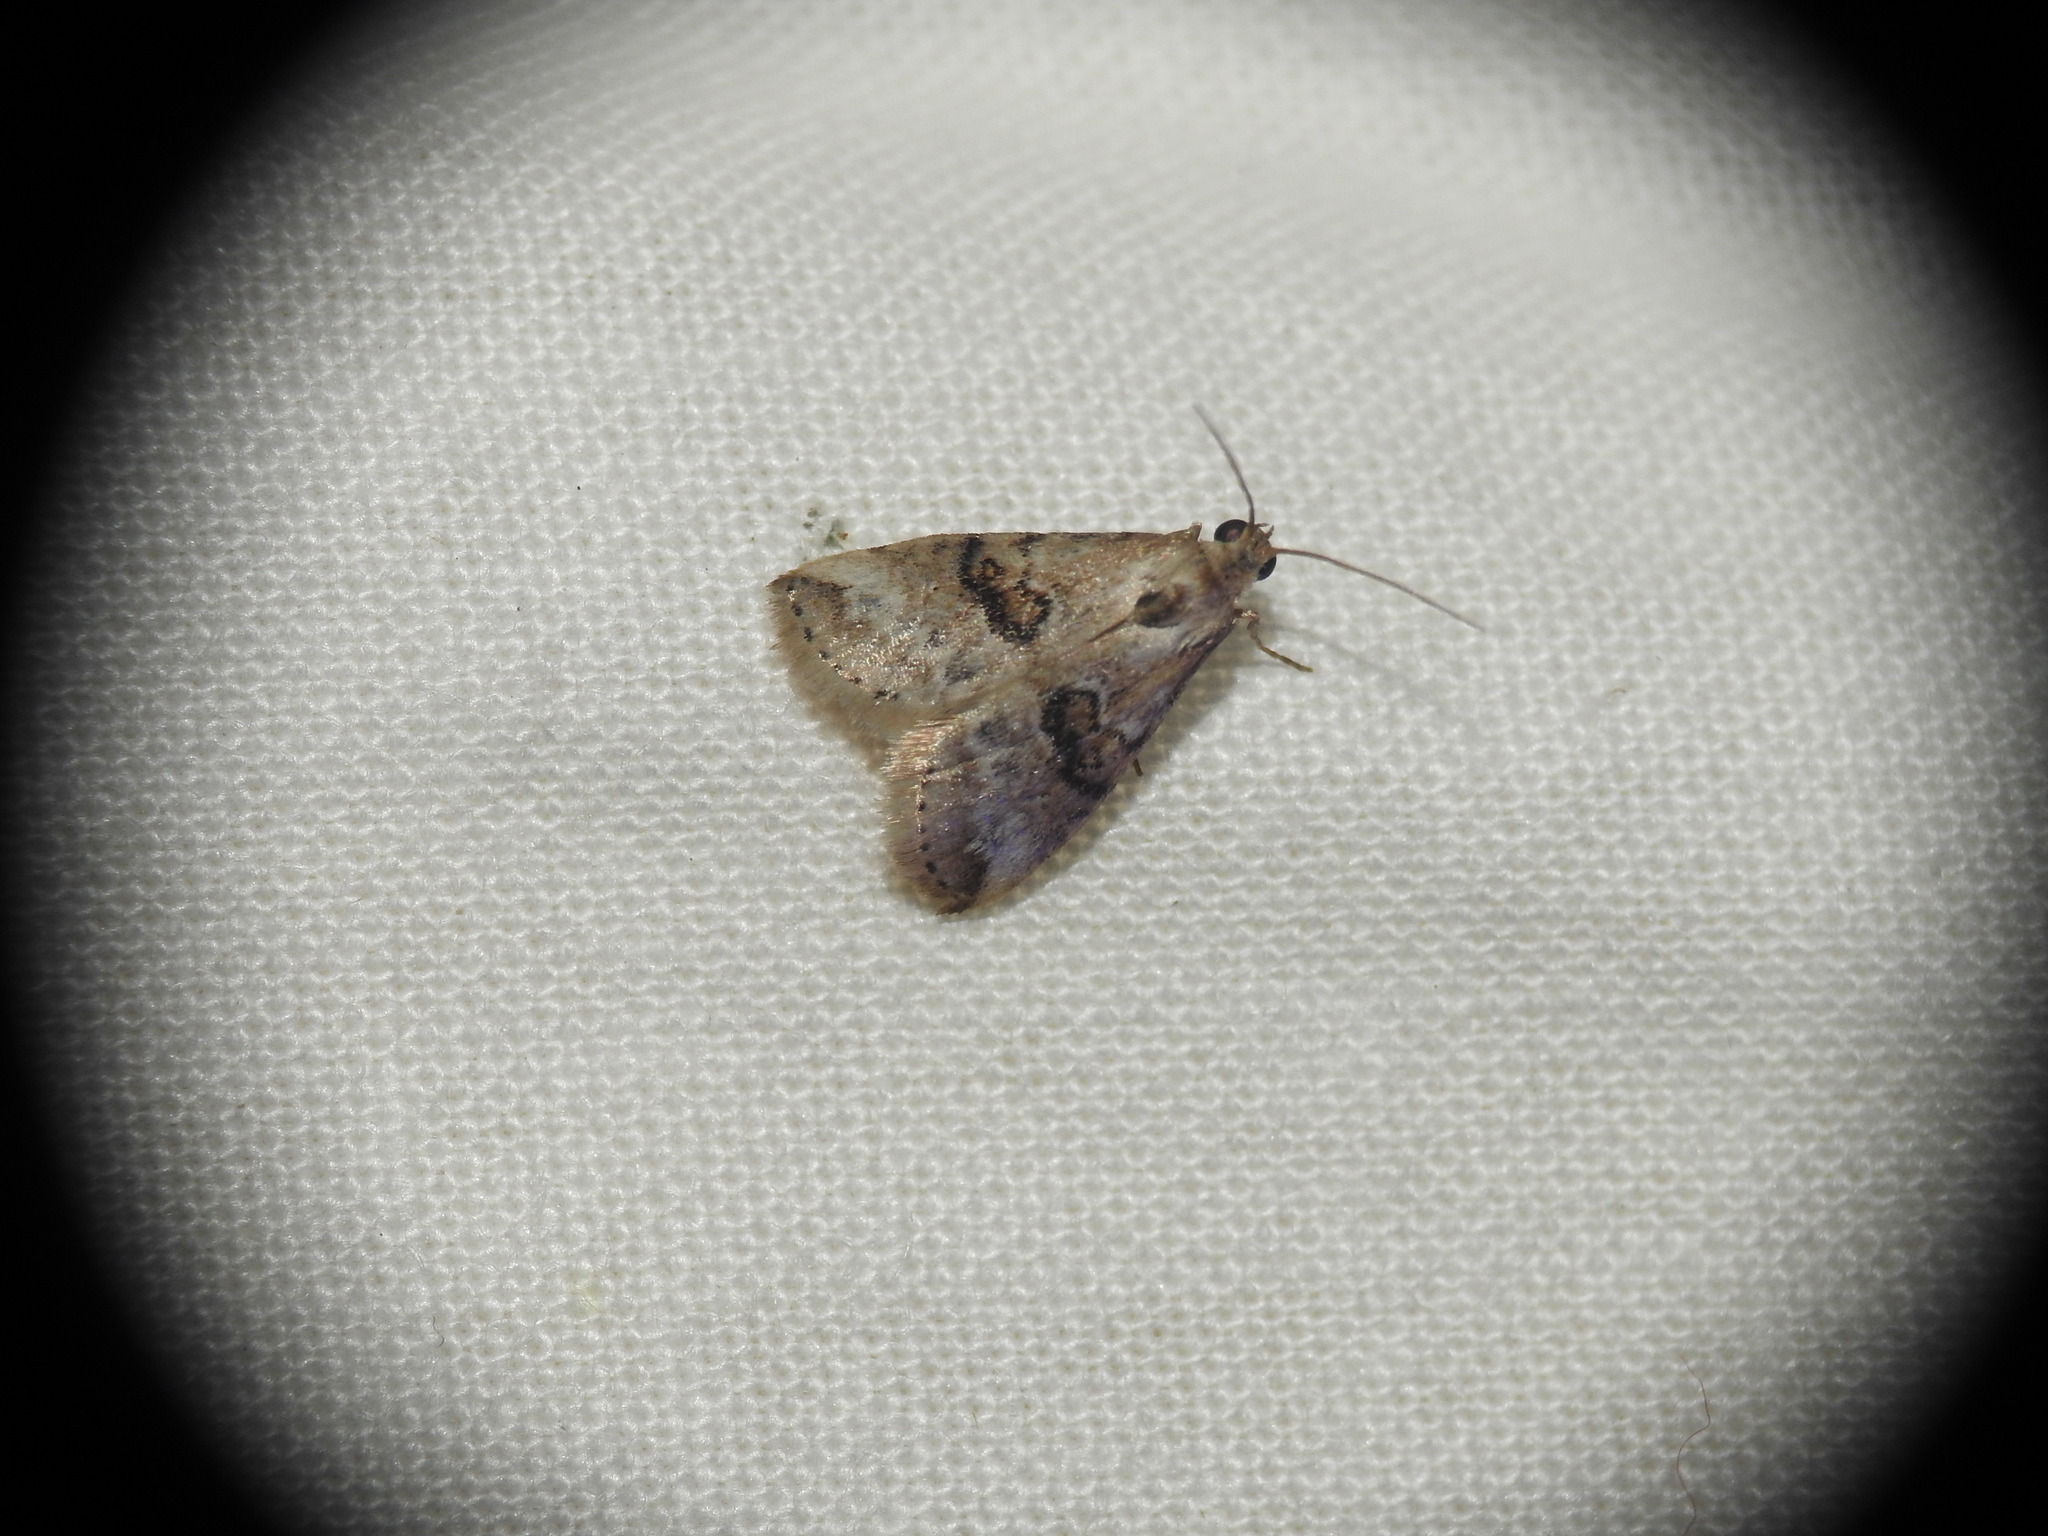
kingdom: Animalia
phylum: Arthropoda
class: Insecta
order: Lepidoptera
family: Erebidae
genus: Zebeeba
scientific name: Zebeeba falsalis
